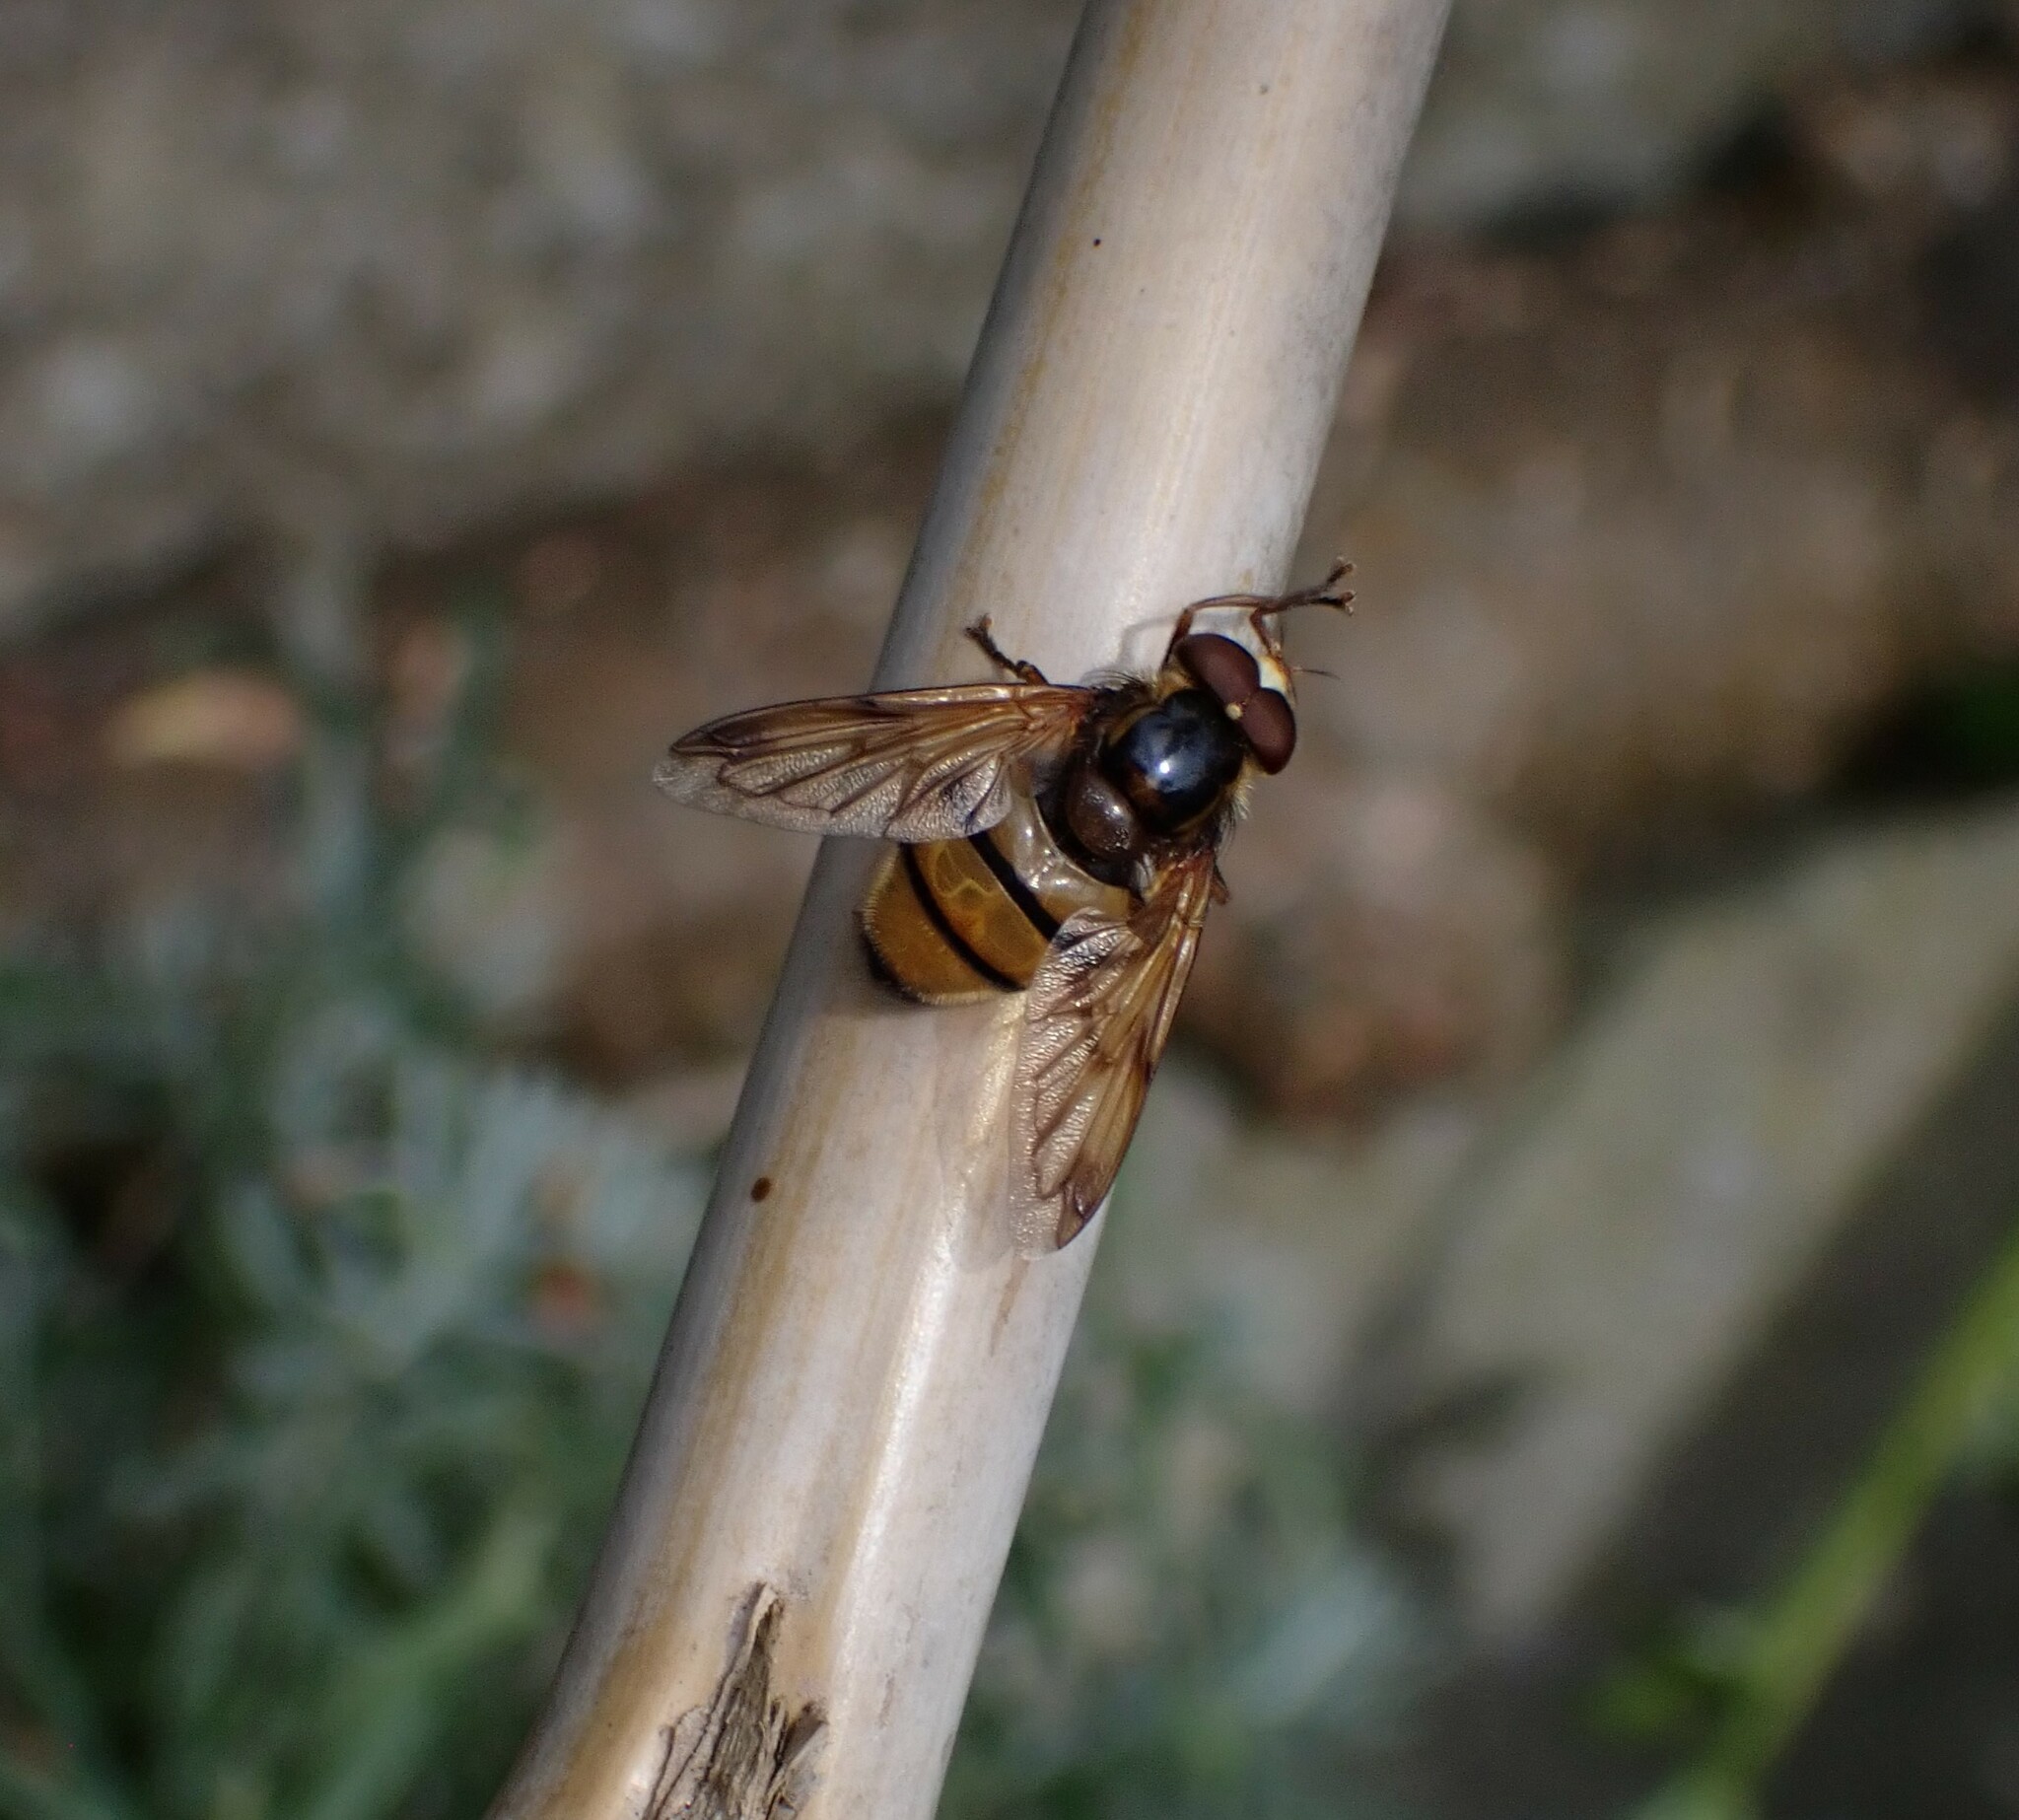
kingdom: Animalia
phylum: Arthropoda
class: Insecta
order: Diptera
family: Syrphidae
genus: Volucella
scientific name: Volucella inanis
